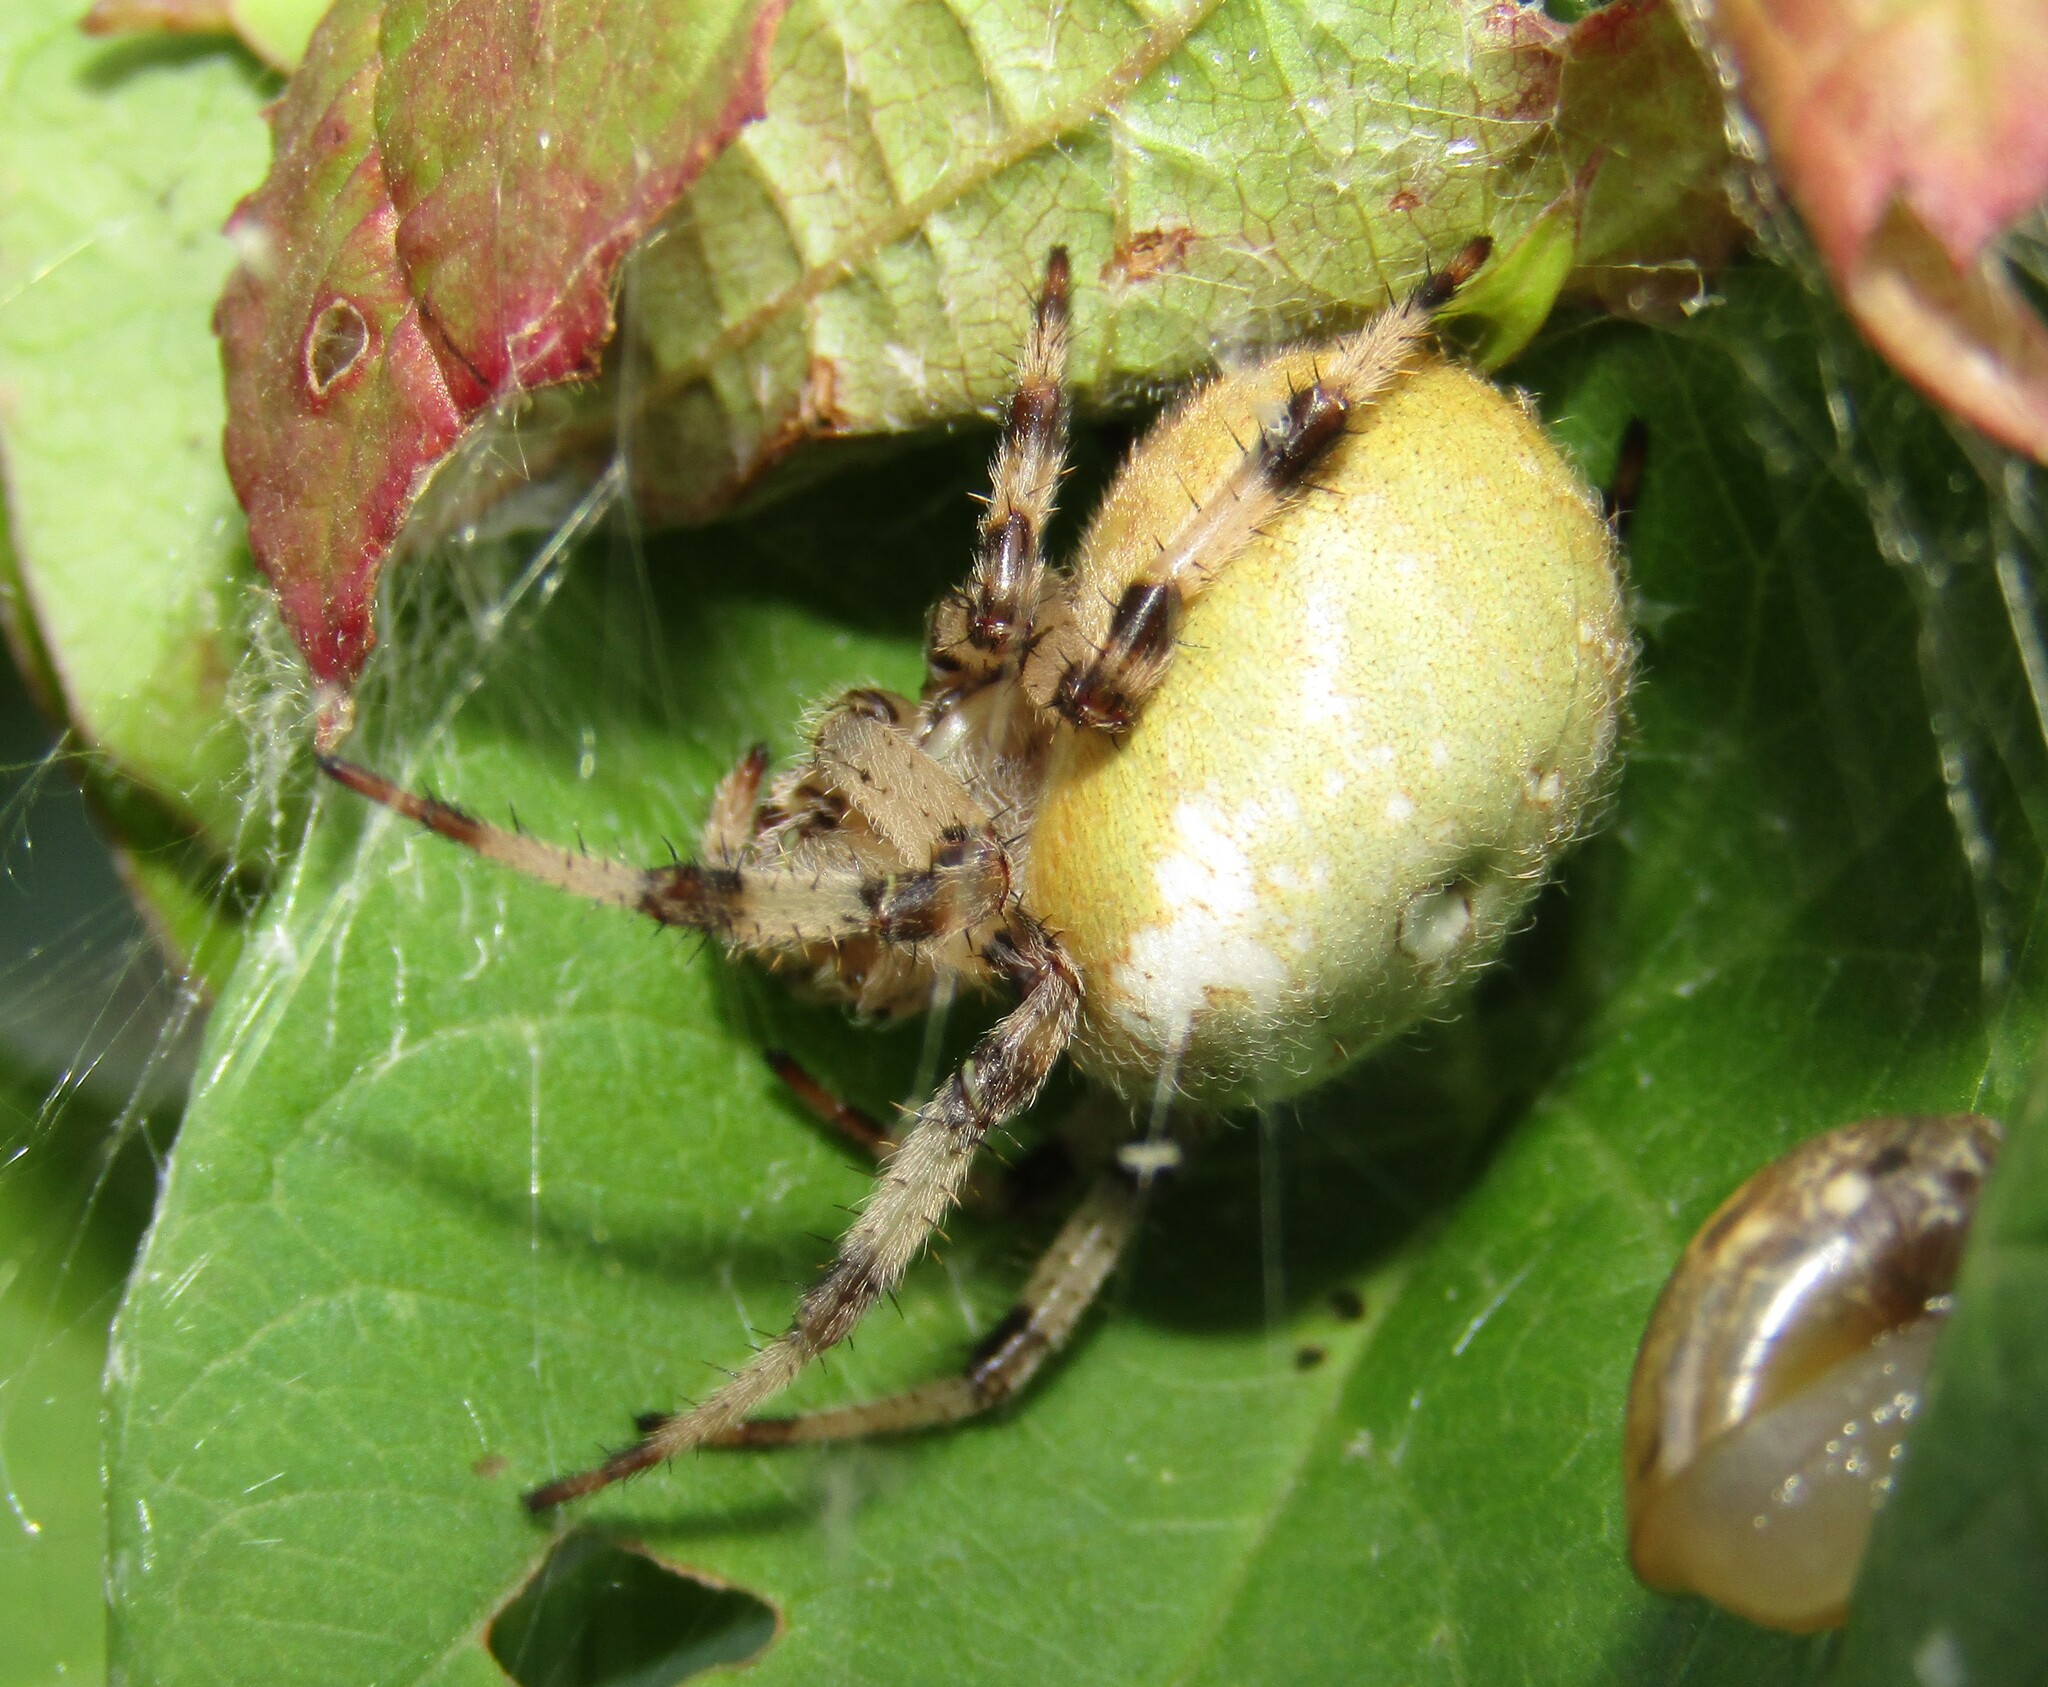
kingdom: Animalia
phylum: Arthropoda
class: Arachnida
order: Araneae
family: Araneidae
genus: Araneus
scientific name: Araneus quadratus
